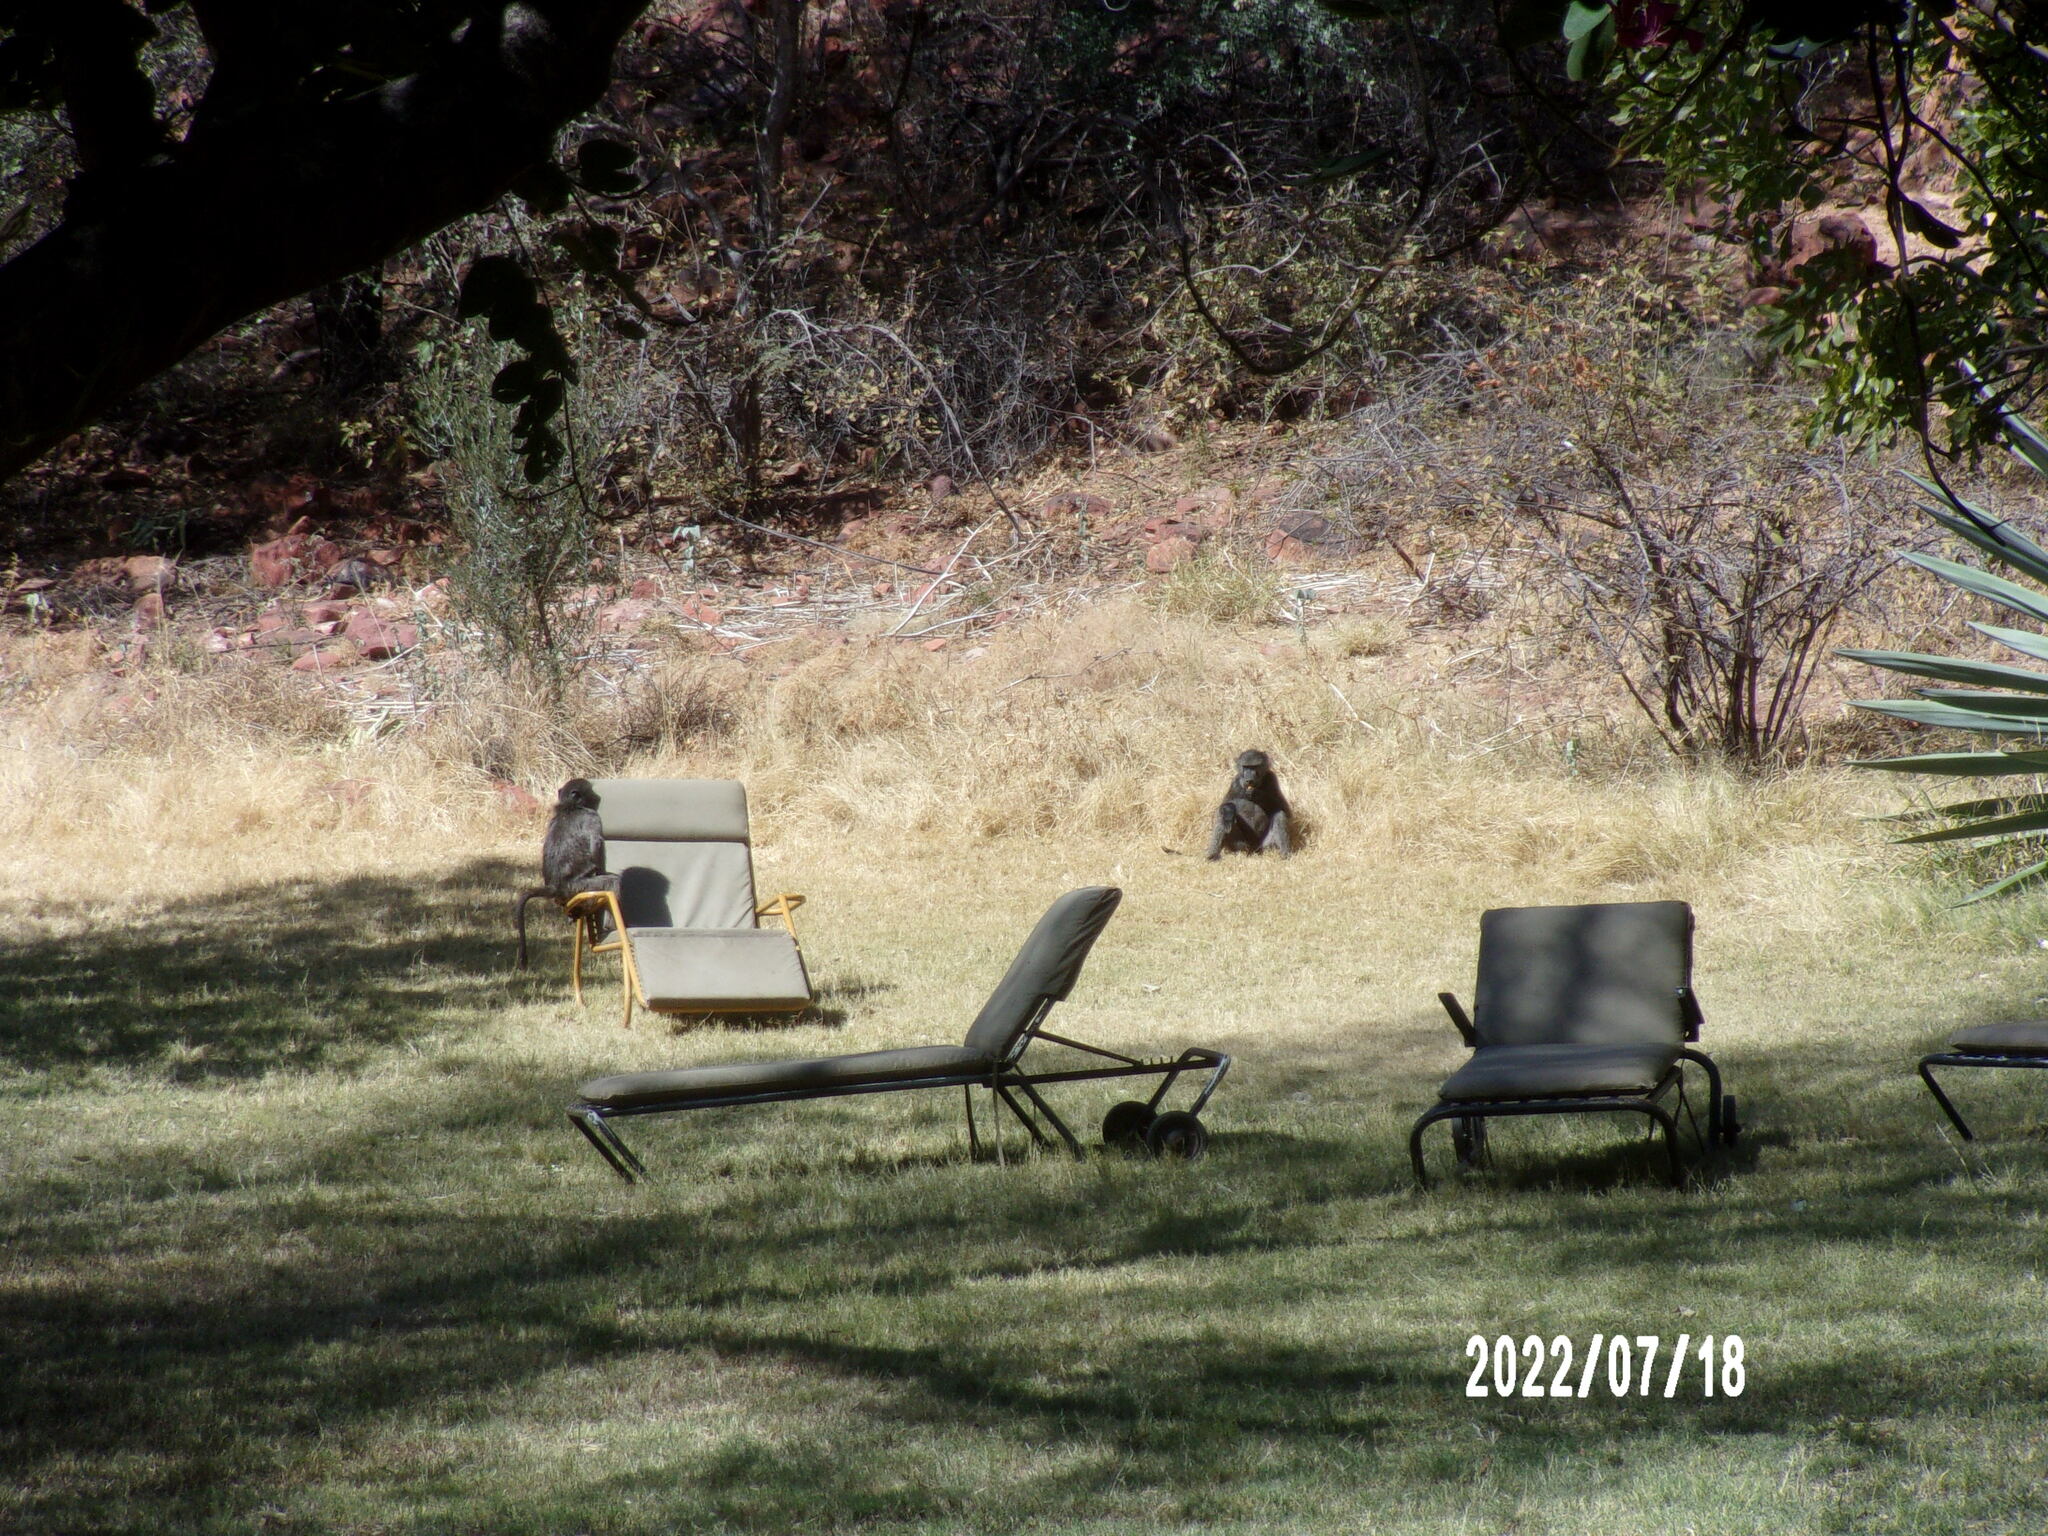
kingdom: Animalia
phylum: Chordata
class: Mammalia
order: Primates
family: Cercopithecidae
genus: Papio
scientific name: Papio ursinus
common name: Chacma baboon
